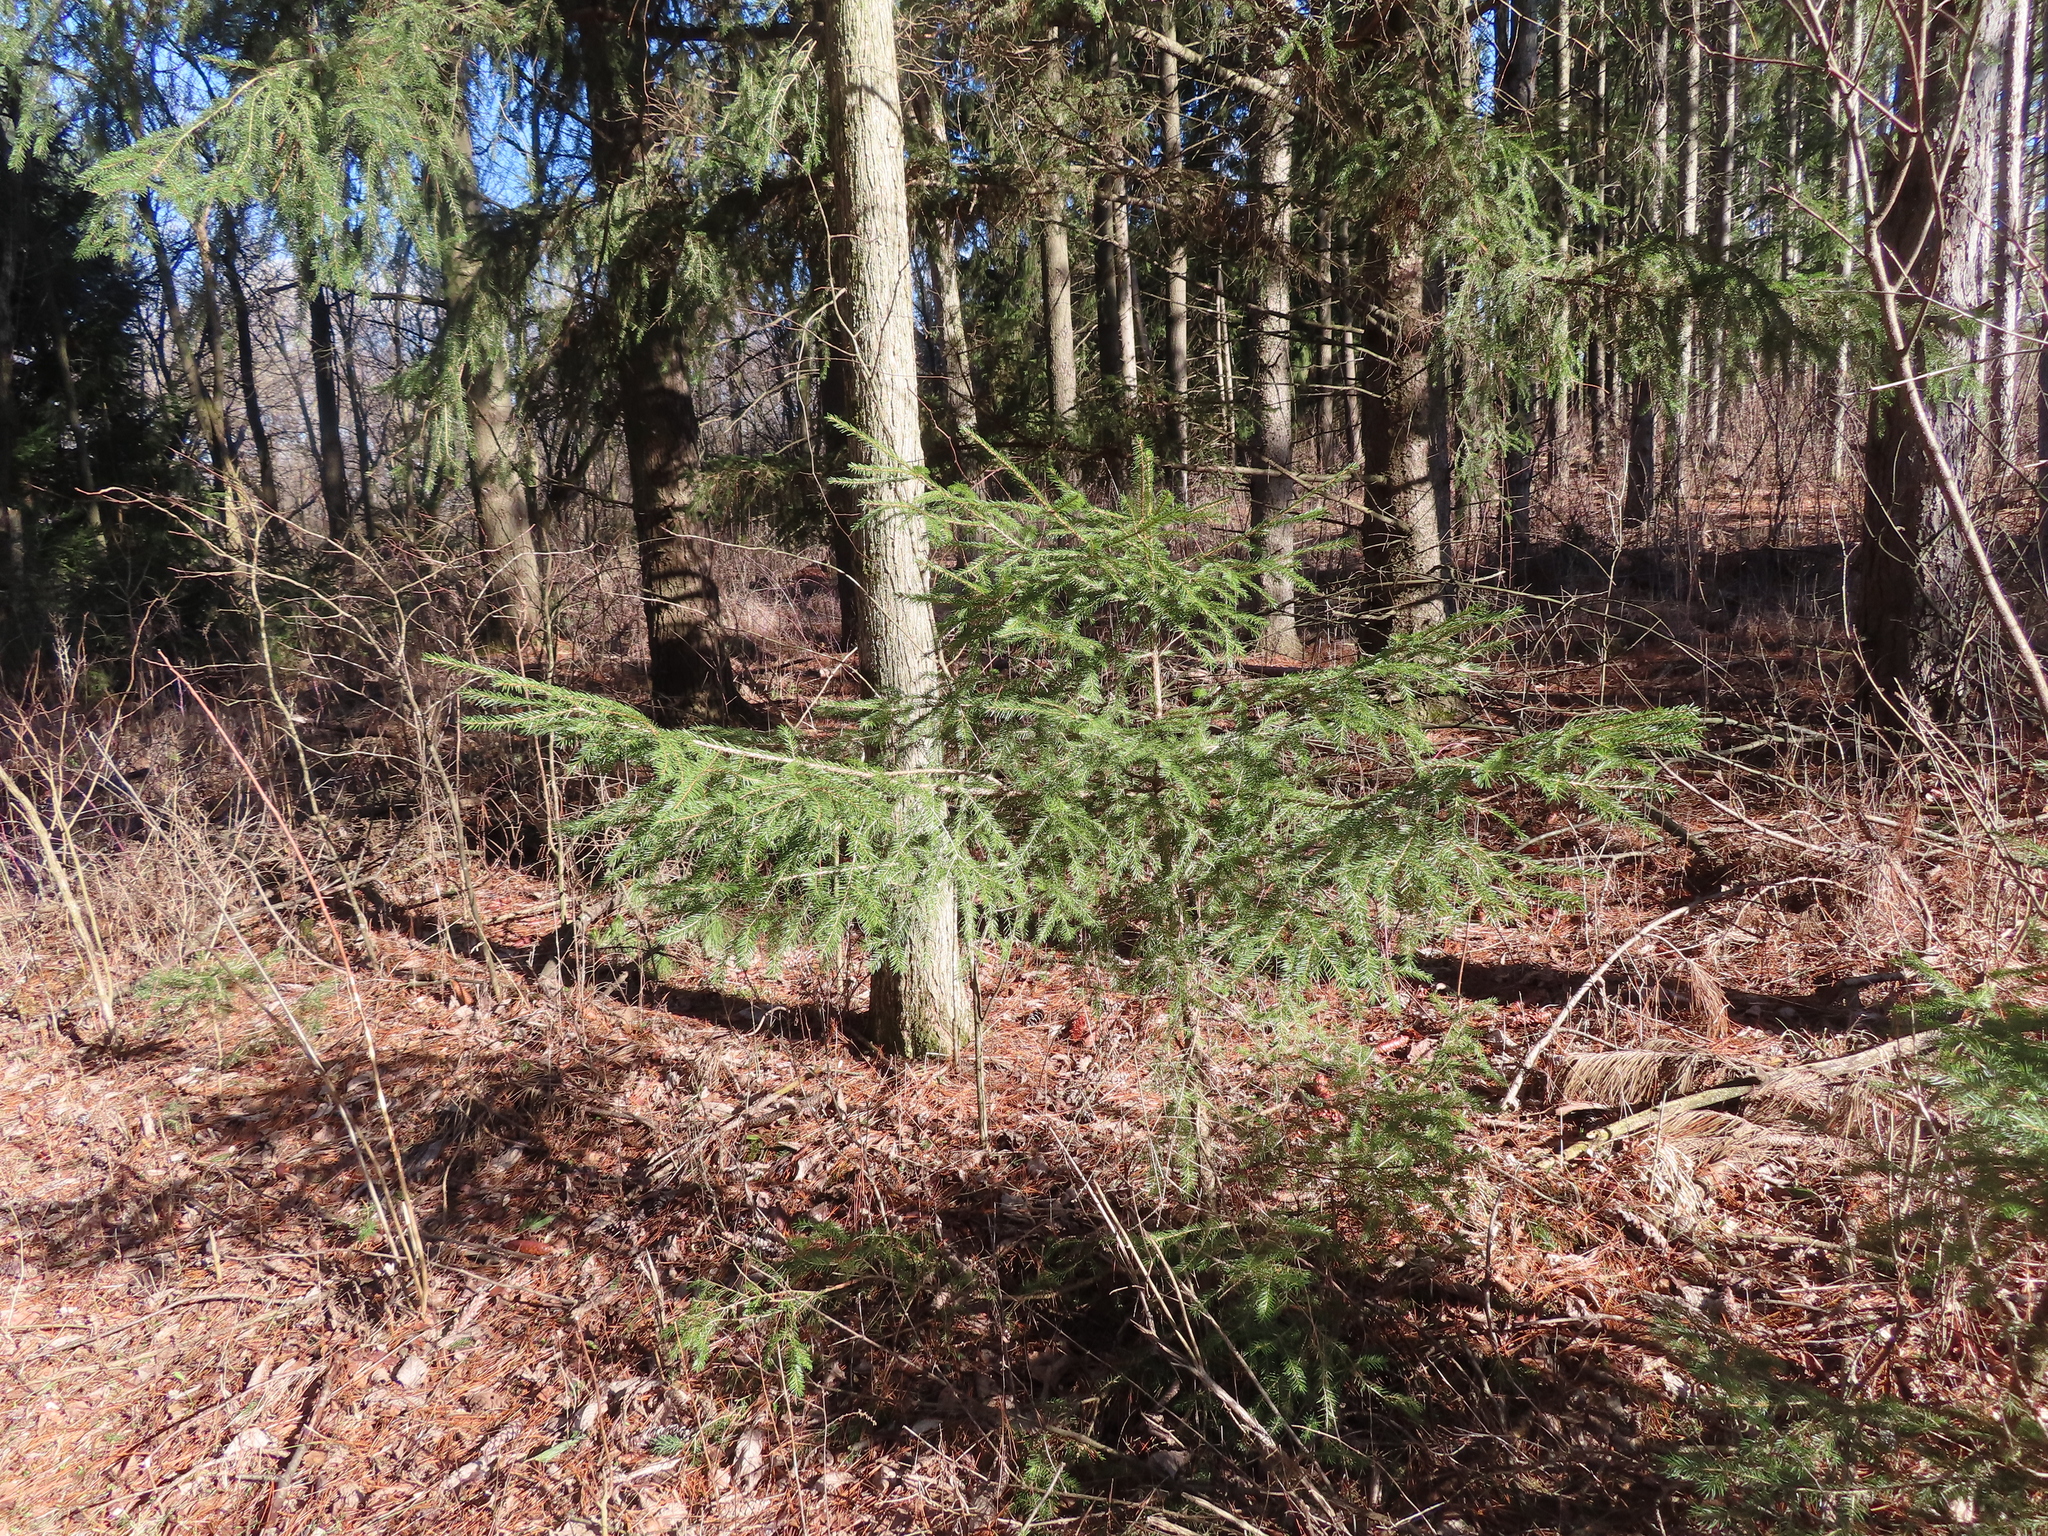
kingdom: Plantae
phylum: Tracheophyta
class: Pinopsida
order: Pinales
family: Pinaceae
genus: Picea
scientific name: Picea abies
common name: Norway spruce
